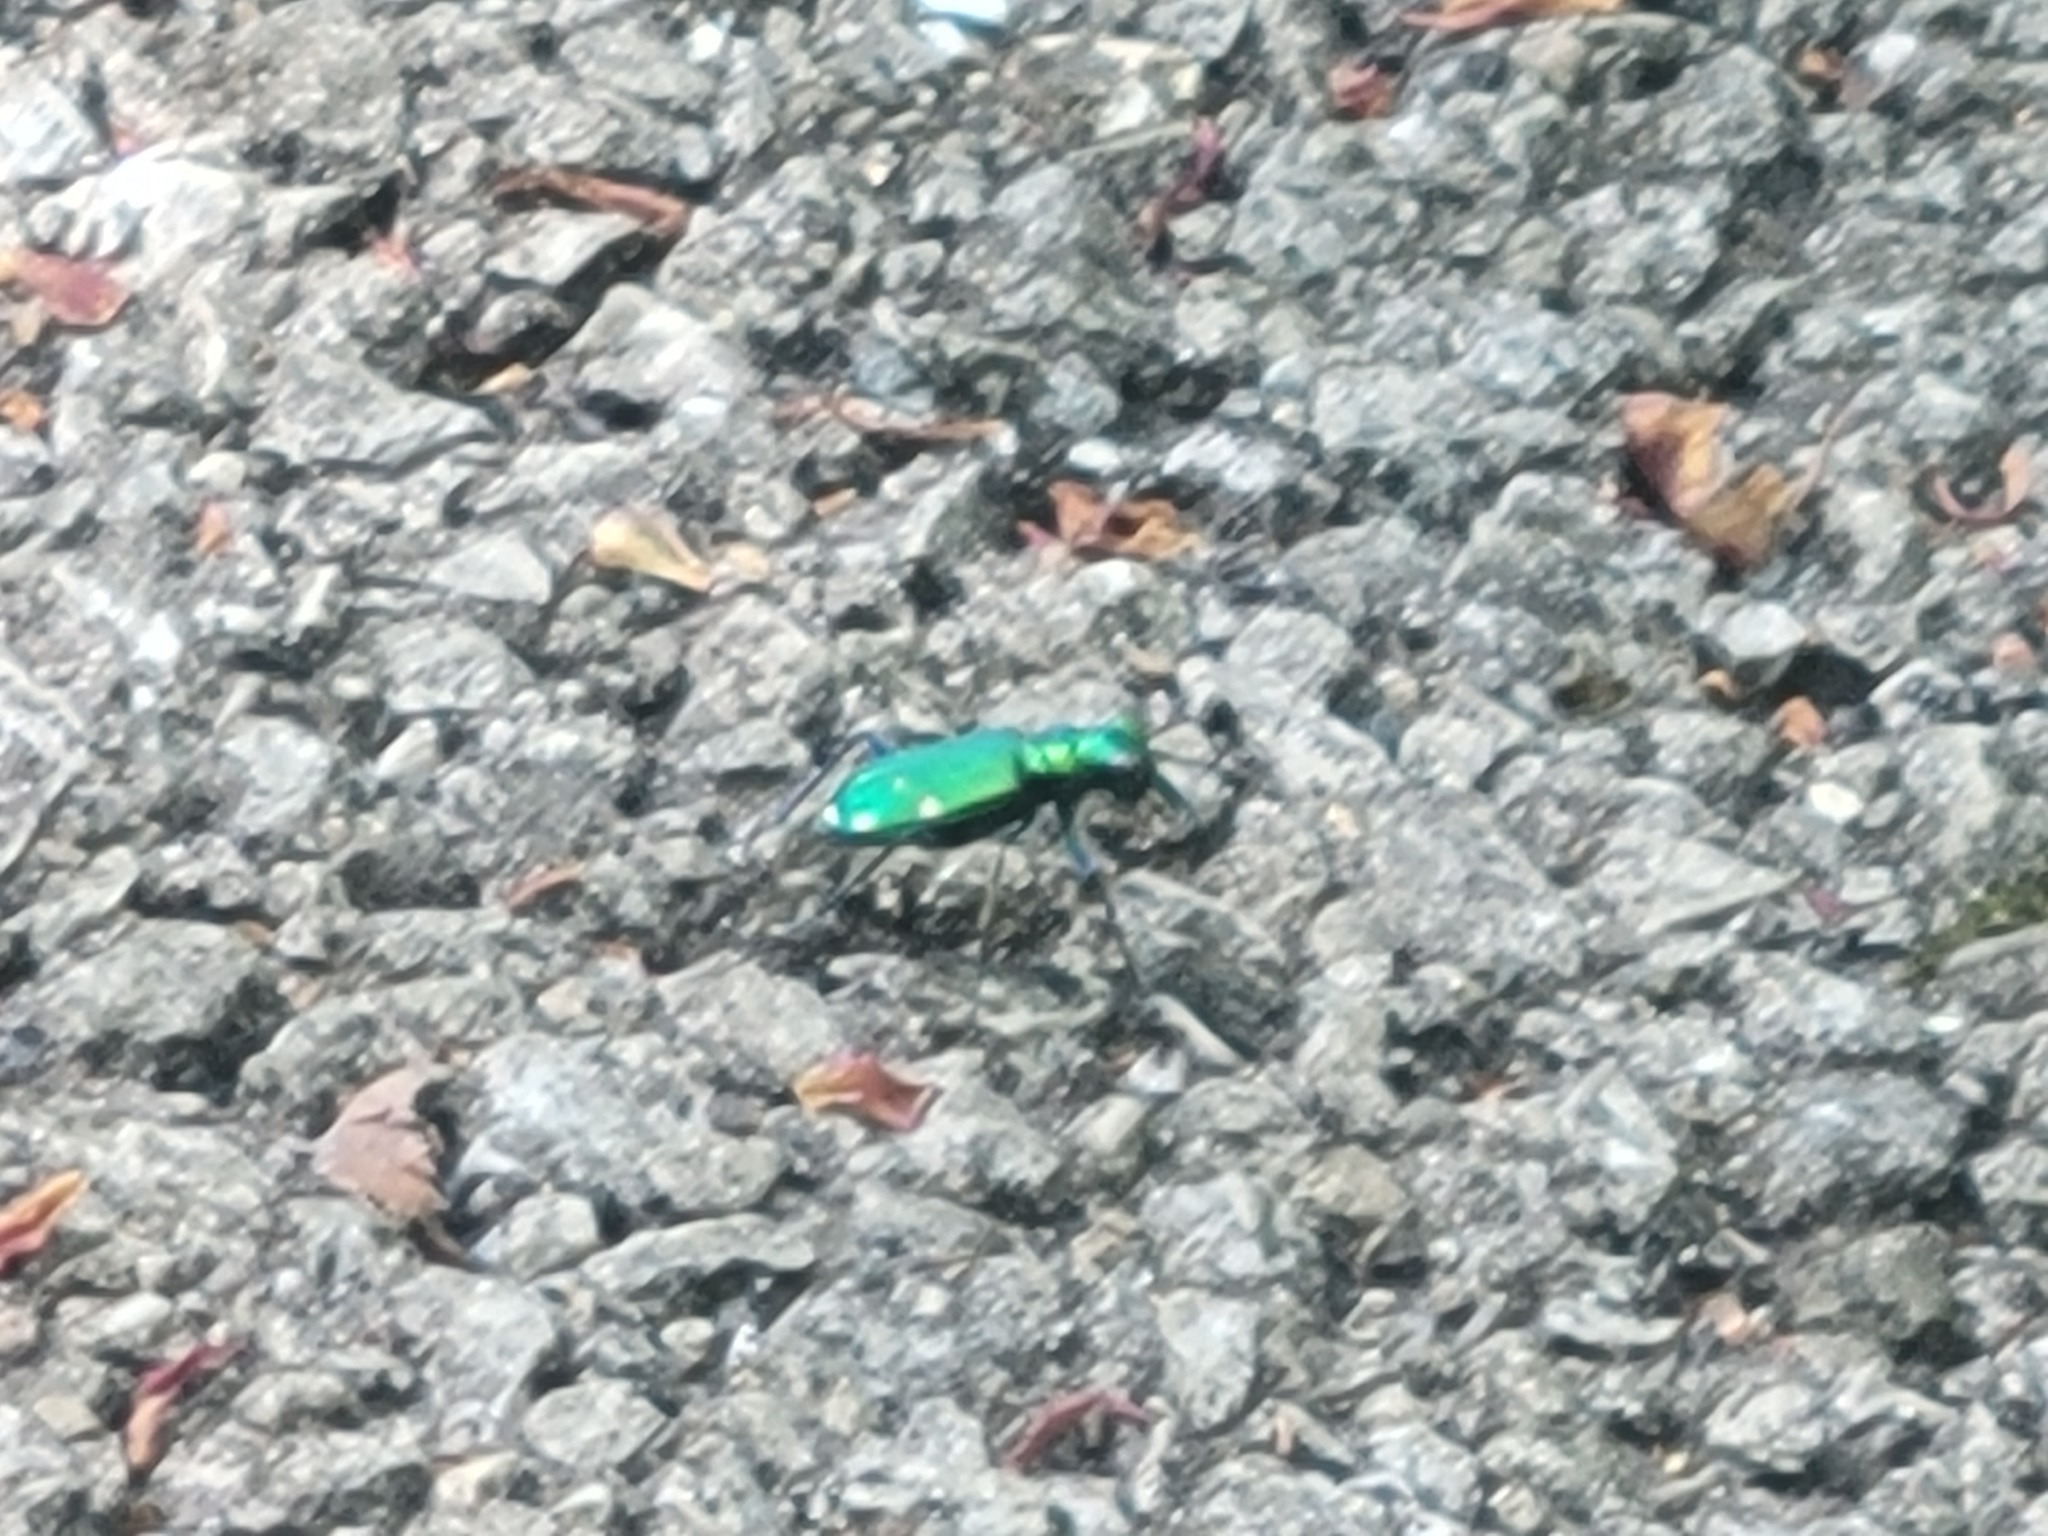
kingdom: Animalia
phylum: Arthropoda
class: Insecta
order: Coleoptera
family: Carabidae
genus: Cicindela
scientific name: Cicindela sexguttata
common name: Six-spotted tiger beetle
